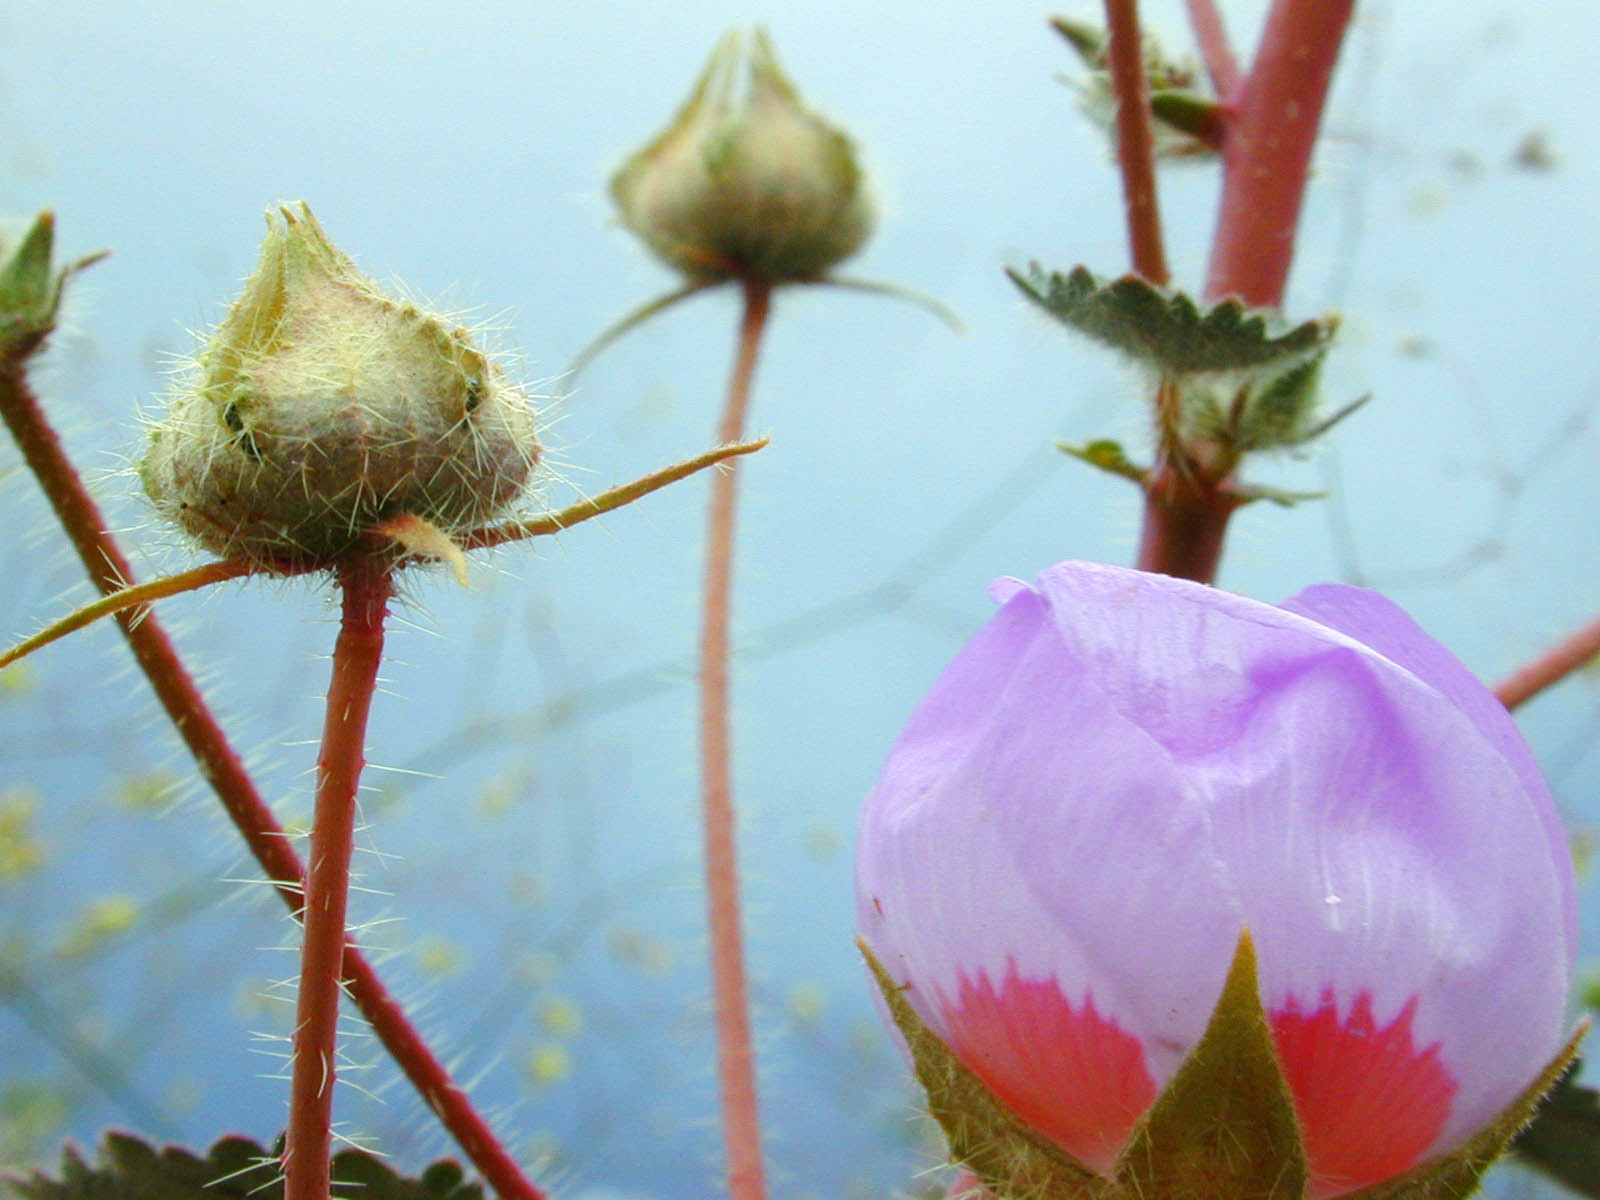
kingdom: Plantae
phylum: Tracheophyta
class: Magnoliopsida
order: Malvales
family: Malvaceae
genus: Eremalche
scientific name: Eremalche rotundifolia
